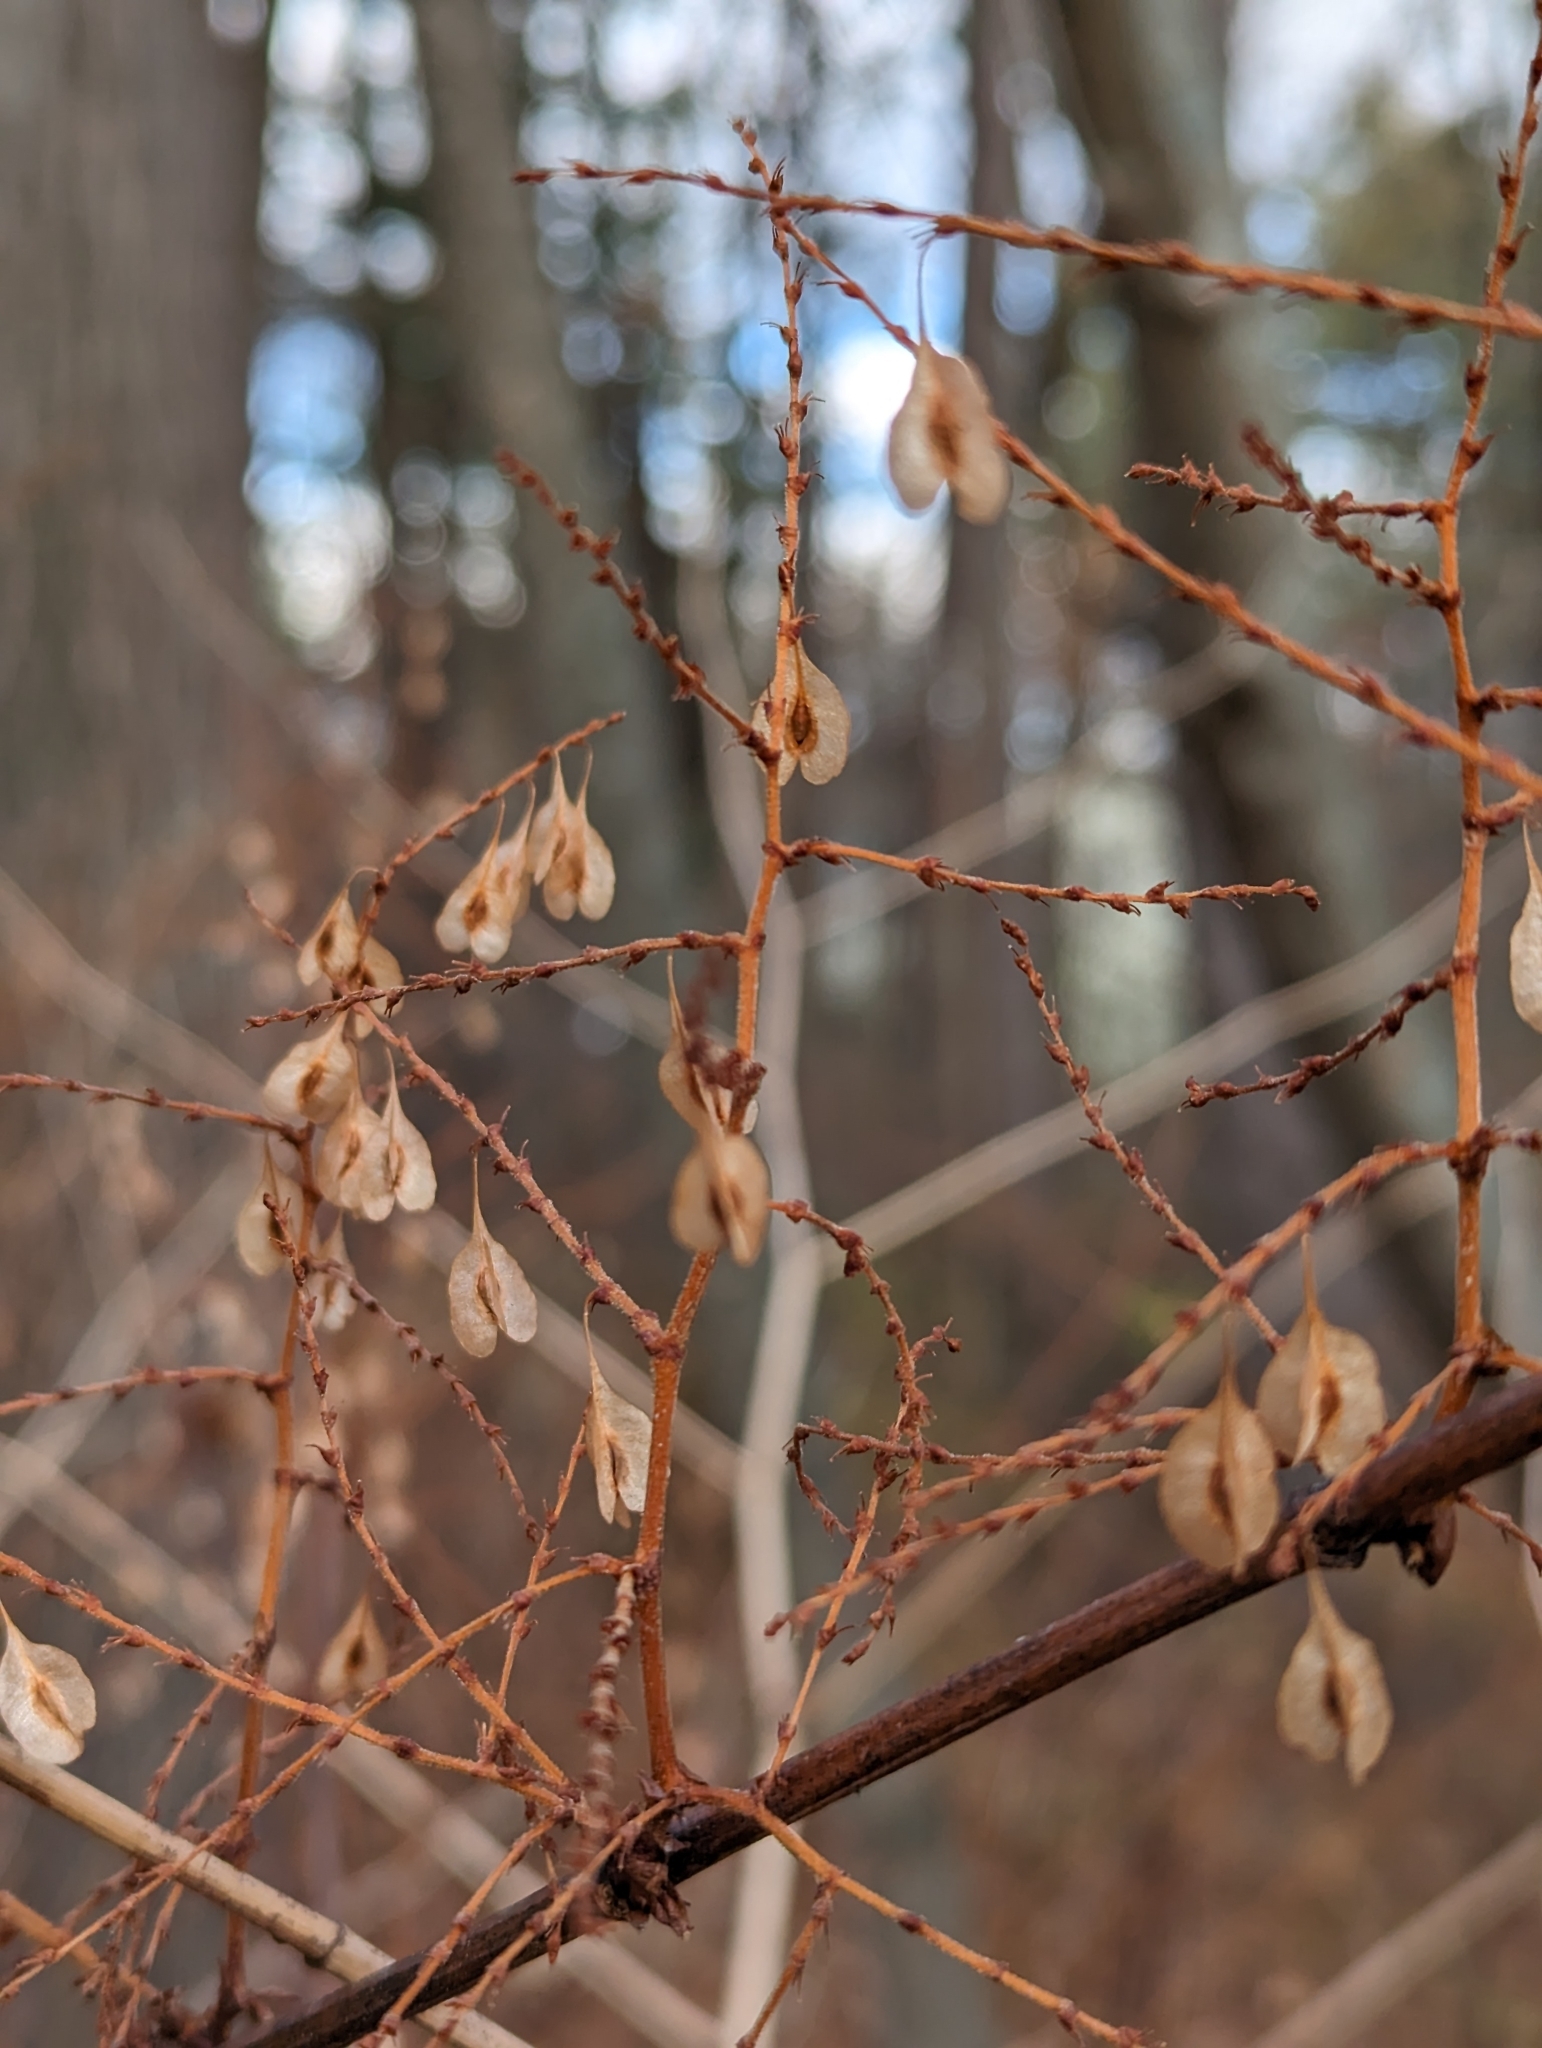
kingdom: Plantae
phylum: Tracheophyta
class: Magnoliopsida
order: Caryophyllales
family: Polygonaceae
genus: Reynoutria
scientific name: Reynoutria japonica
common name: Japanese knotweed
